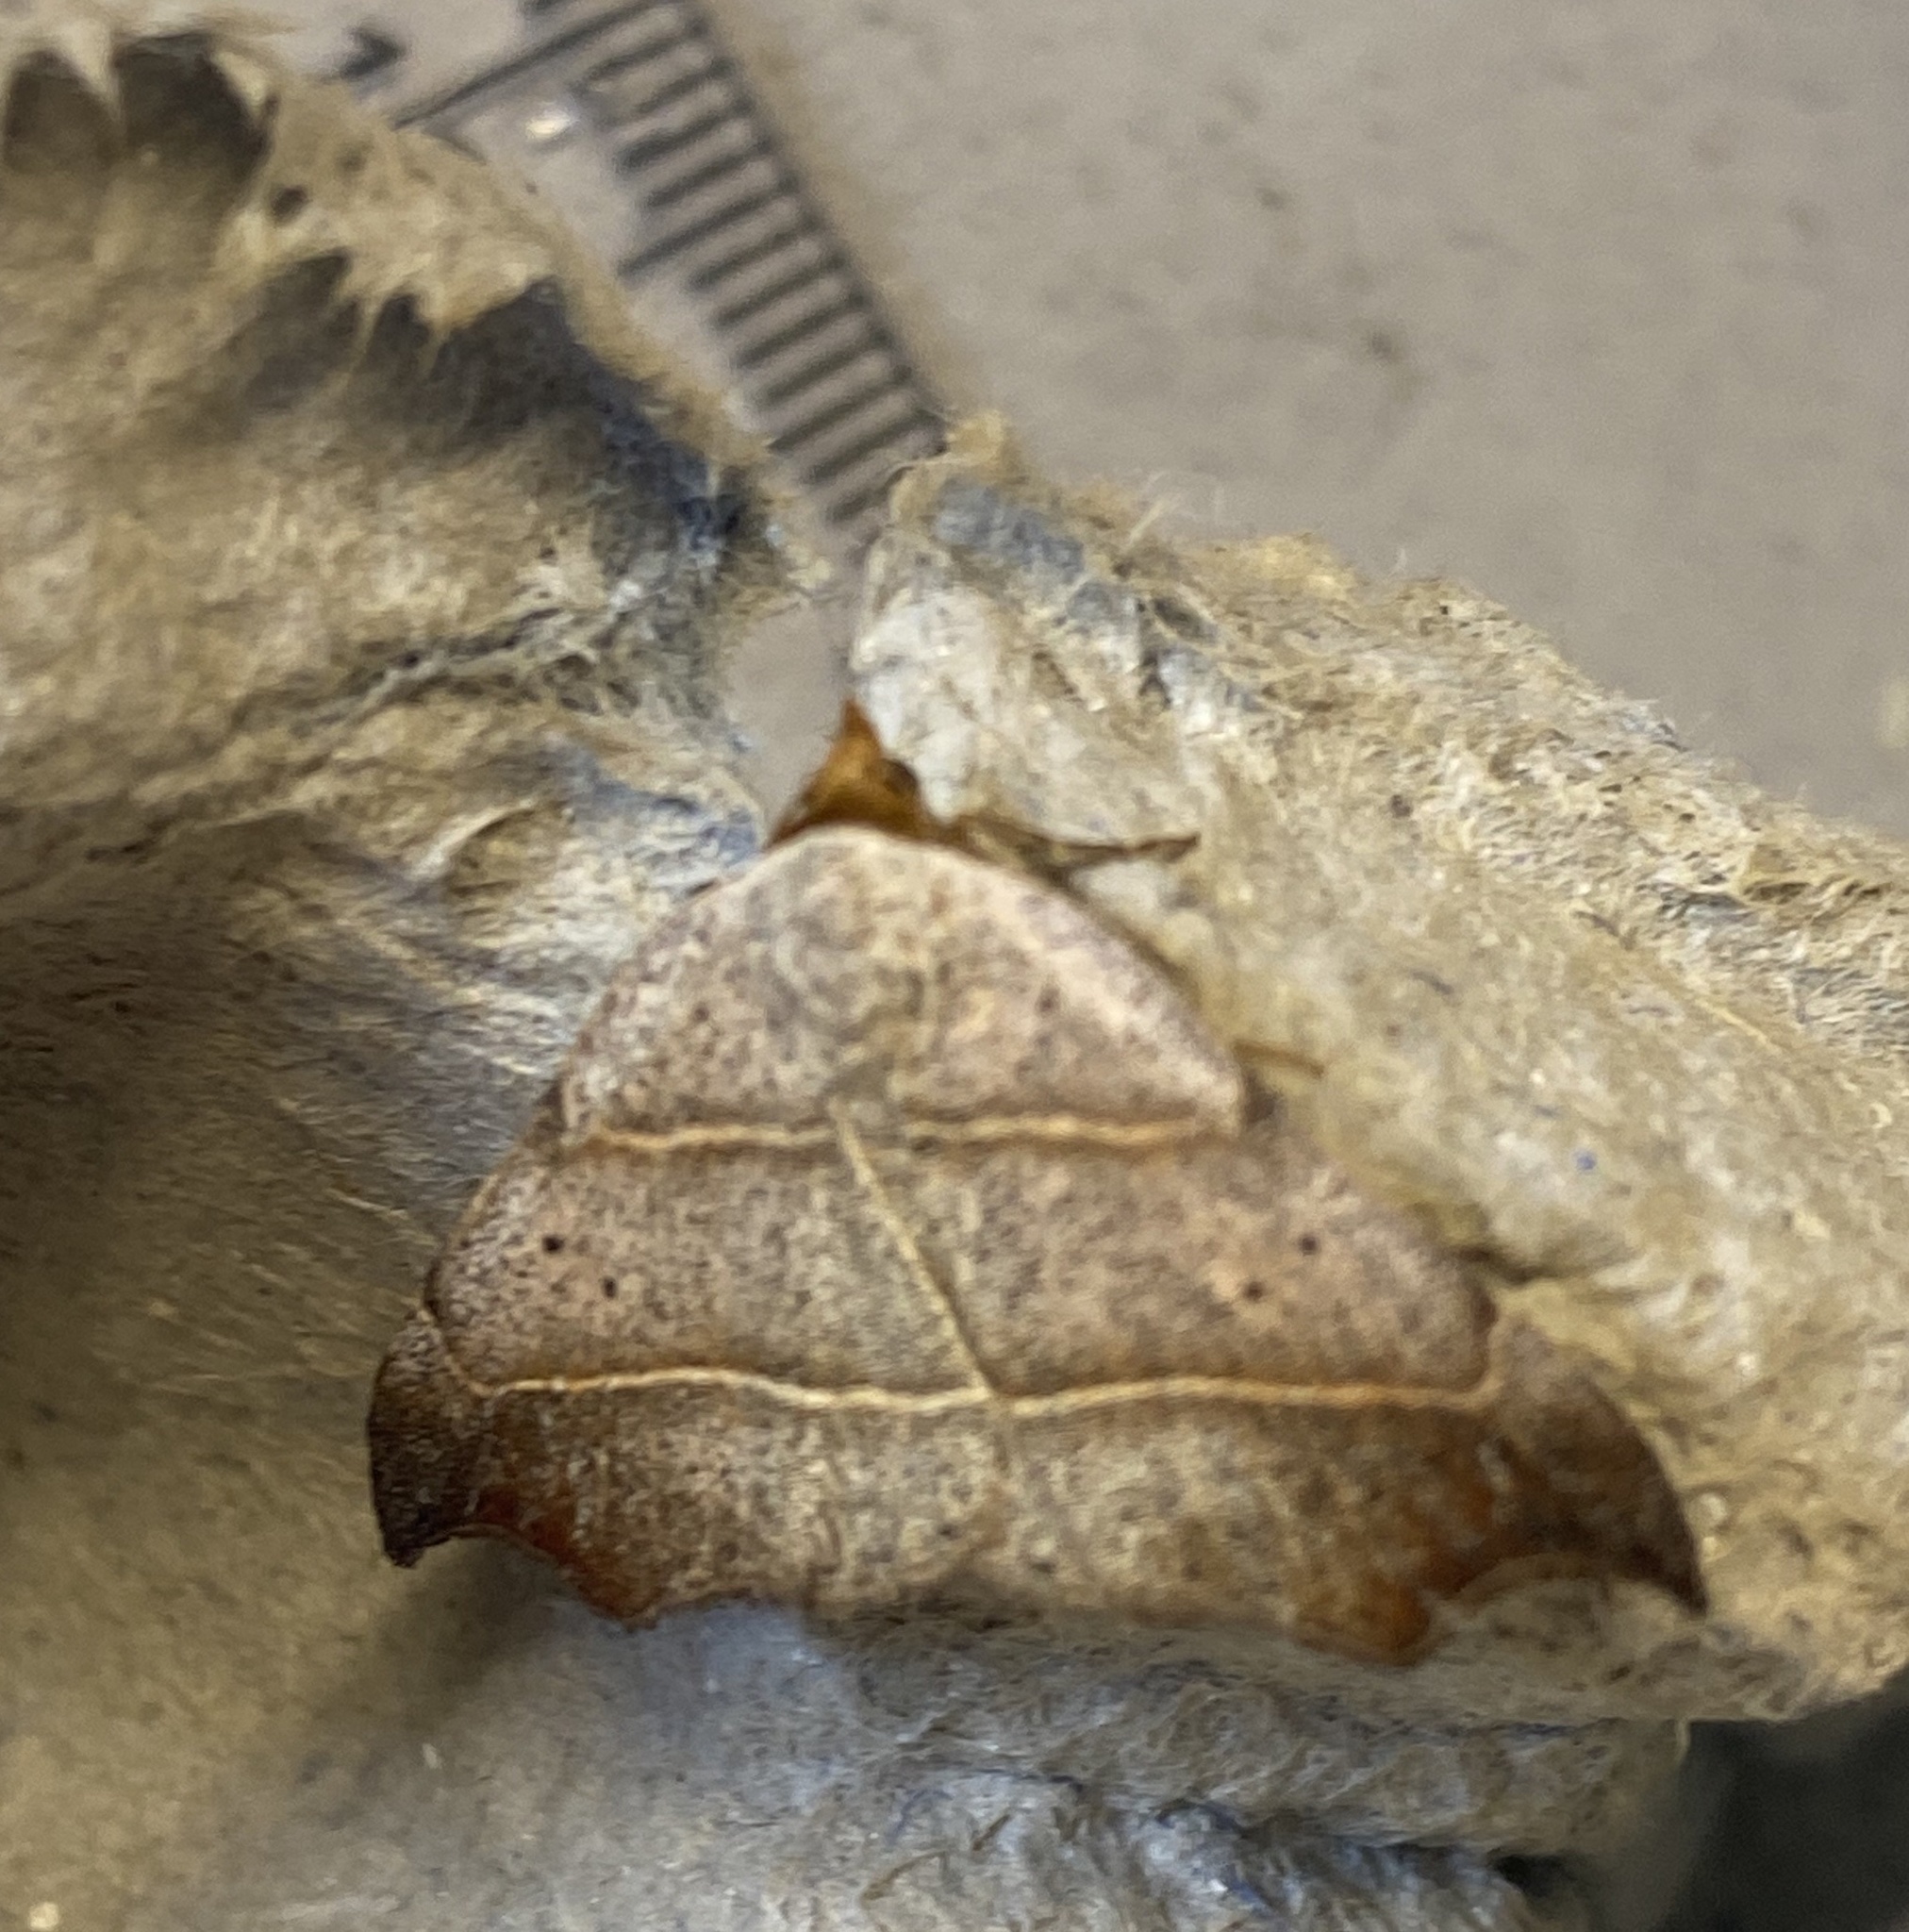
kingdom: Animalia
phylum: Arthropoda
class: Insecta
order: Lepidoptera
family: Erebidae
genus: Laspeyria
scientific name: Laspeyria flexula
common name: Beautiful hook-tip
